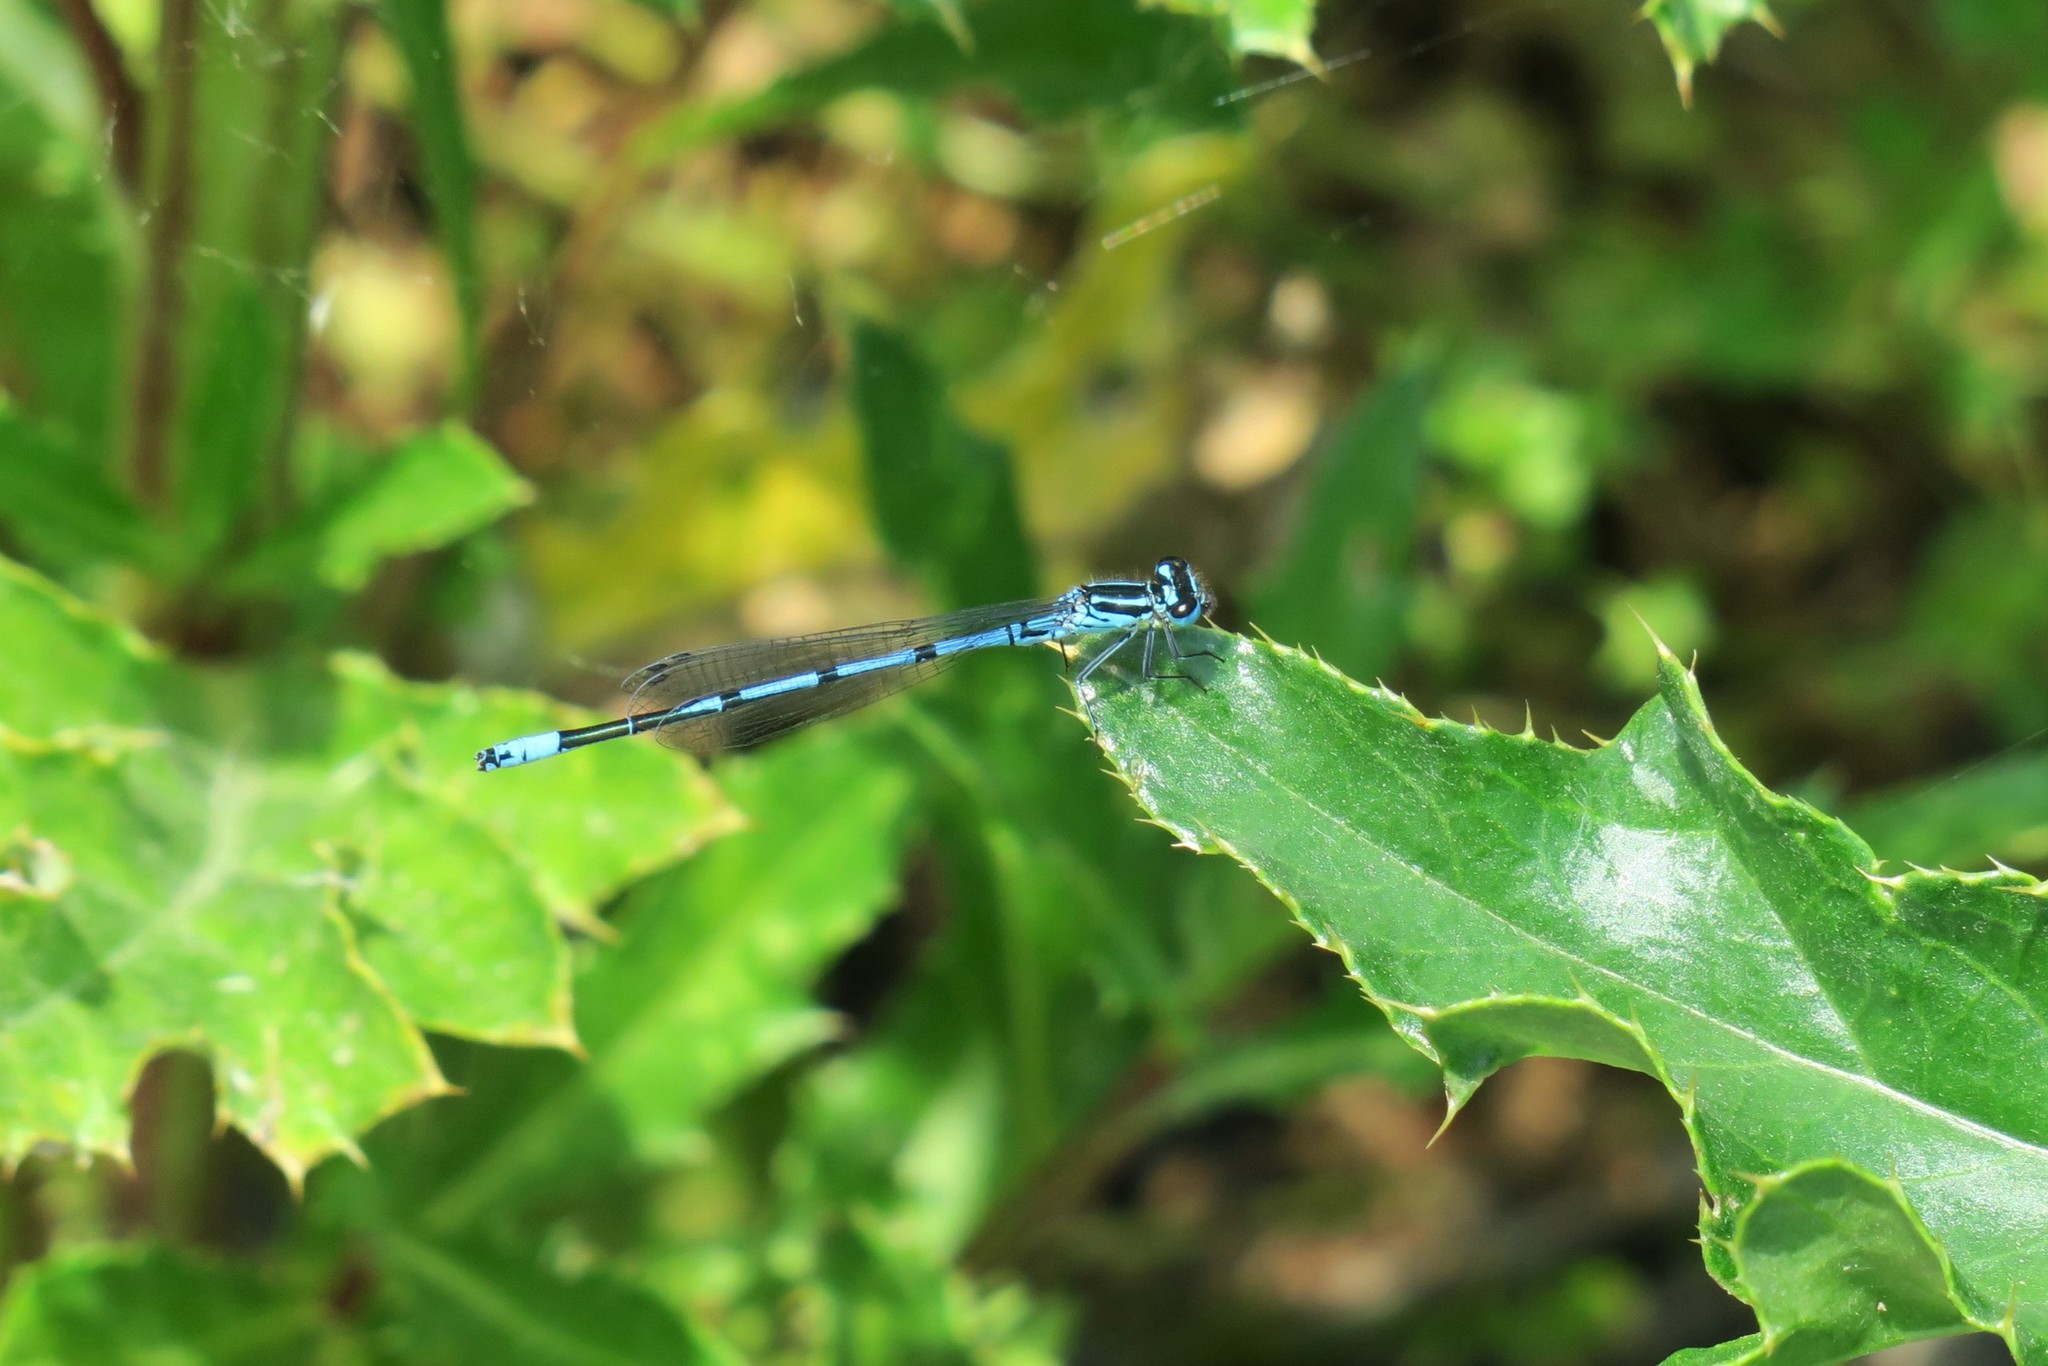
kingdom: Animalia
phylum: Arthropoda
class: Insecta
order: Odonata
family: Coenagrionidae
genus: Coenagrion
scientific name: Coenagrion puella
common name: Azure damselfly
